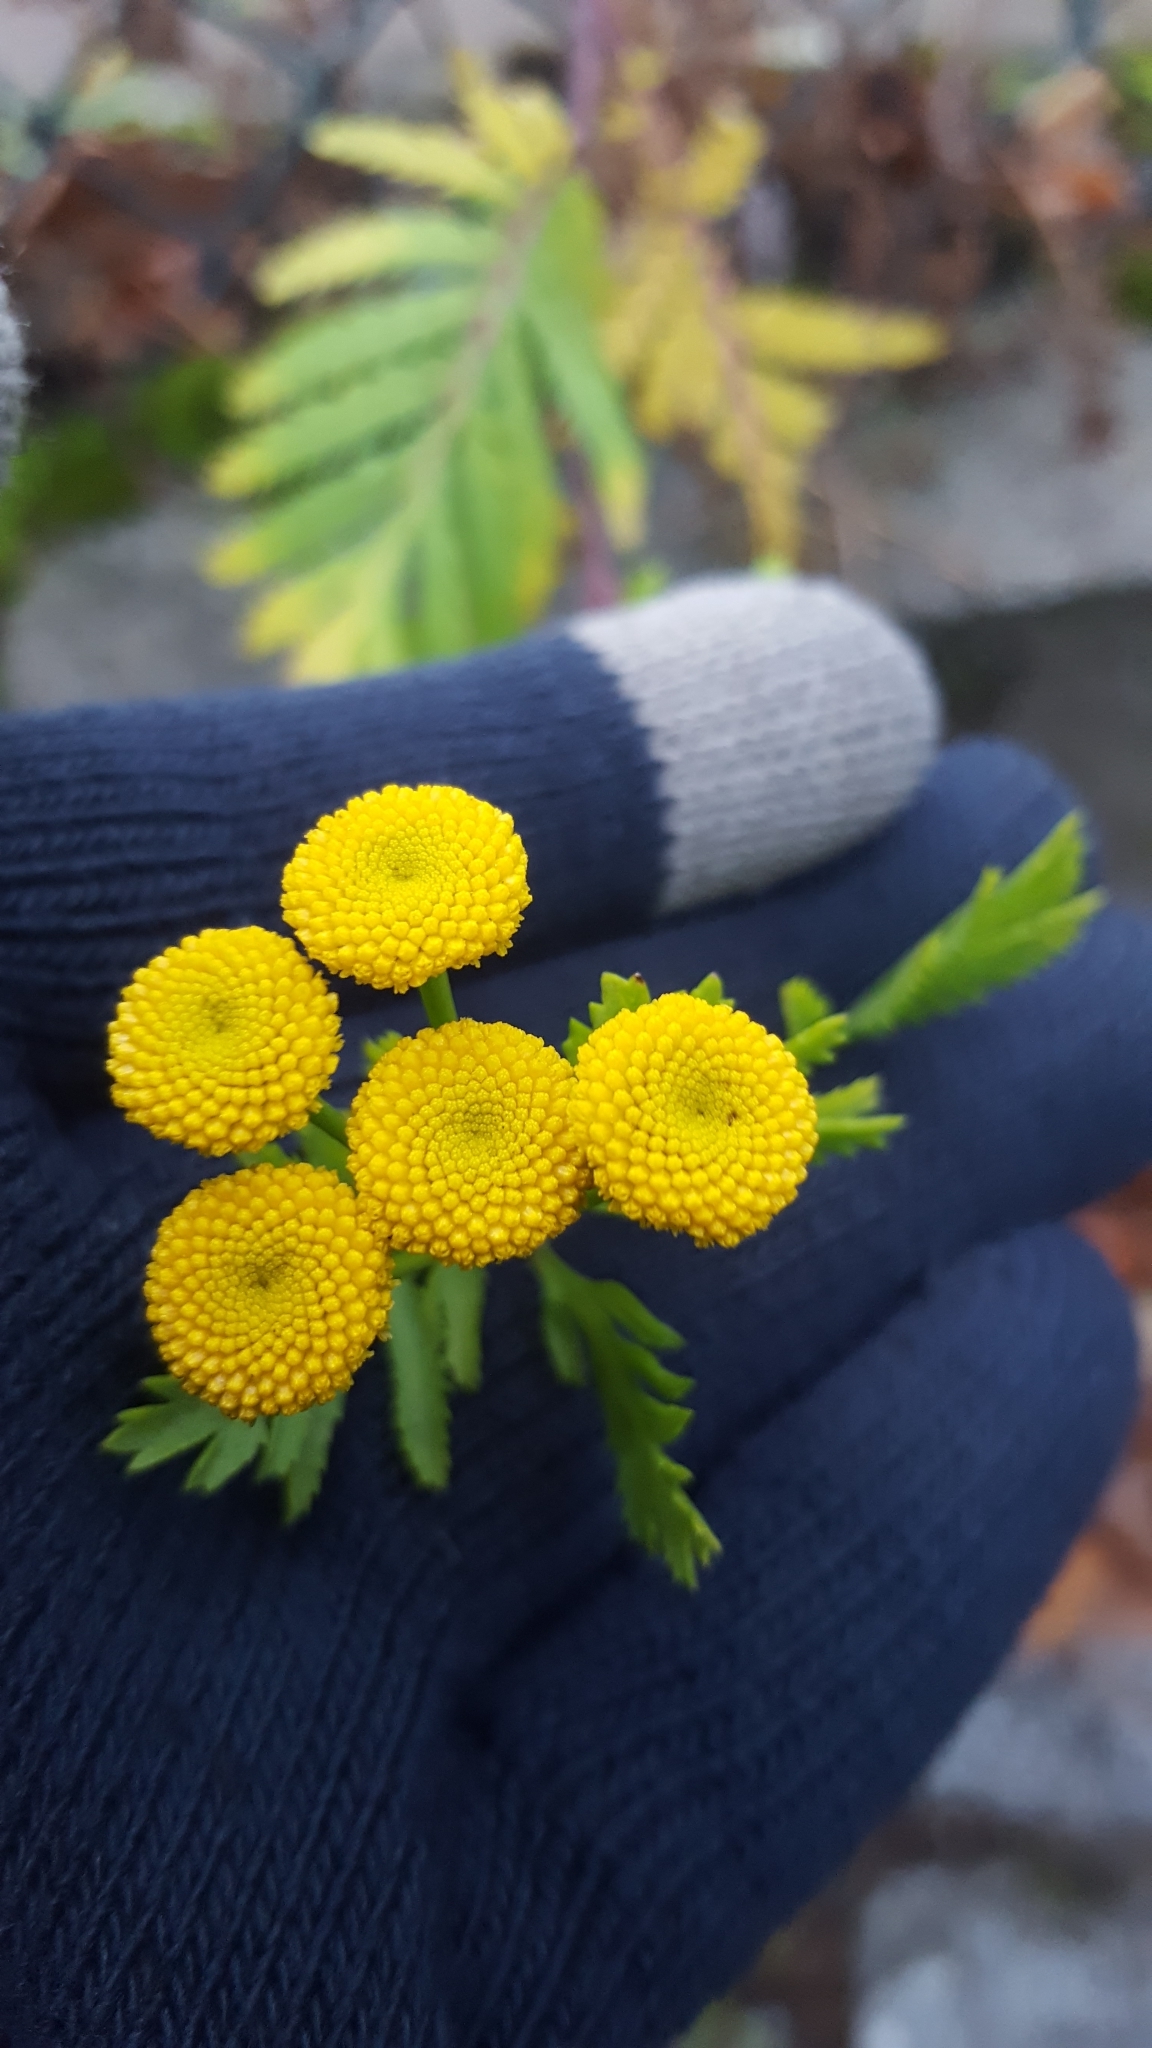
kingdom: Plantae
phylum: Tracheophyta
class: Magnoliopsida
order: Asterales
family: Asteraceae
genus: Tanacetum
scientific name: Tanacetum vulgare
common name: Common tansy
